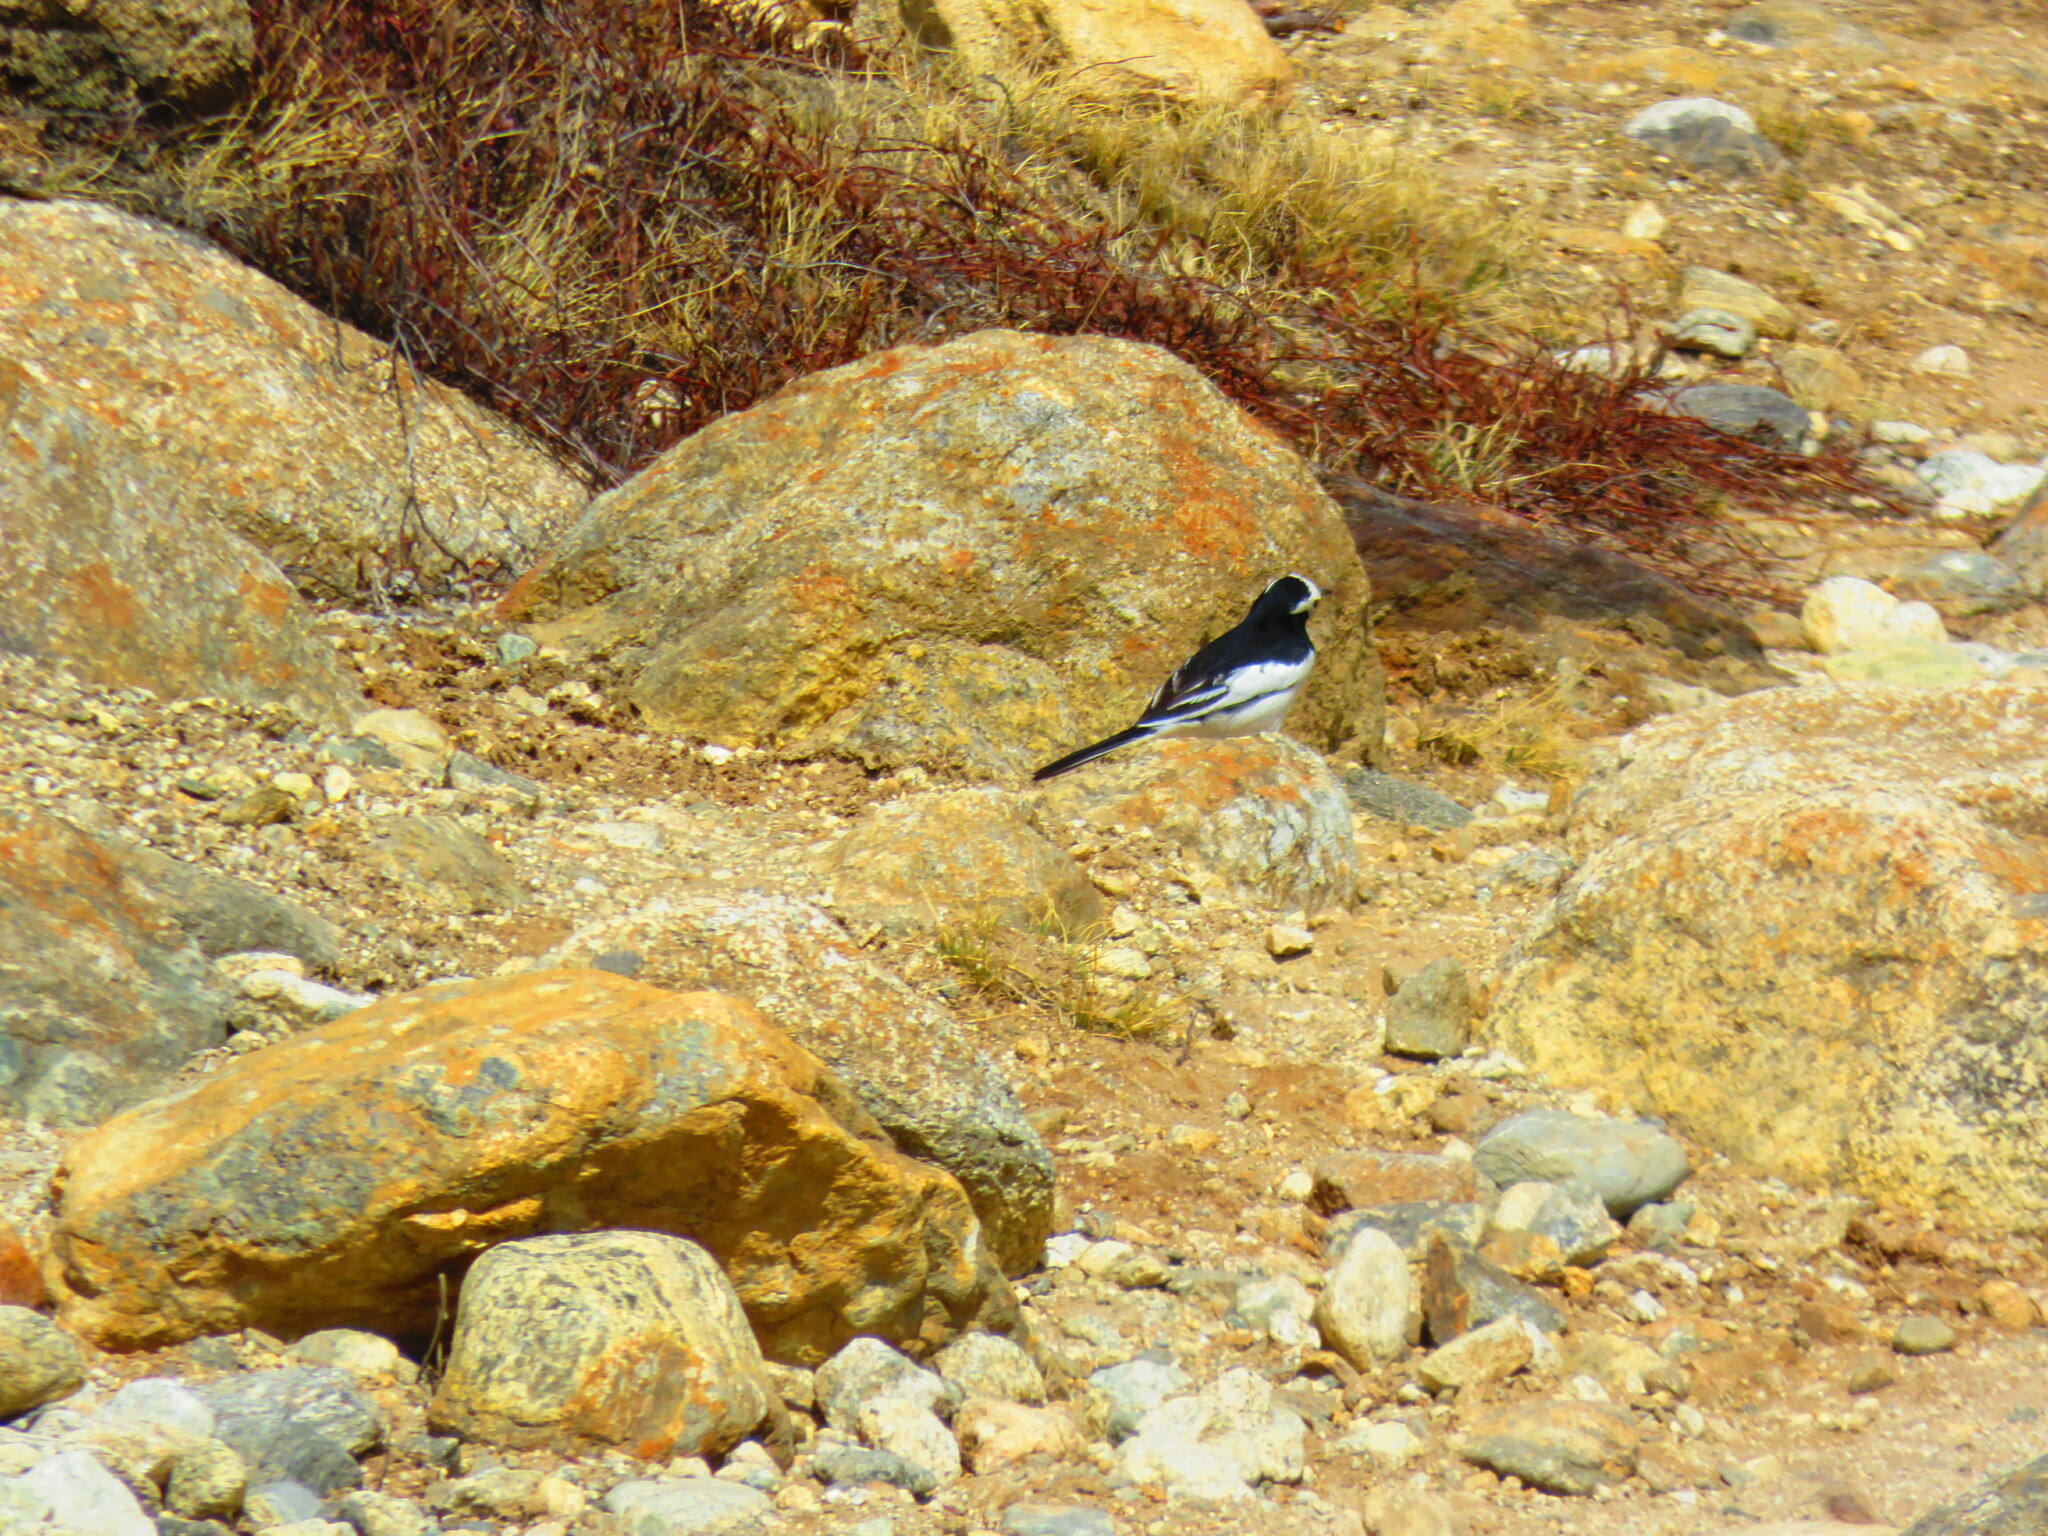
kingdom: Animalia
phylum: Chordata
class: Aves
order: Passeriformes
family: Motacillidae
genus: Motacilla
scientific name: Motacilla alba
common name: White wagtail
